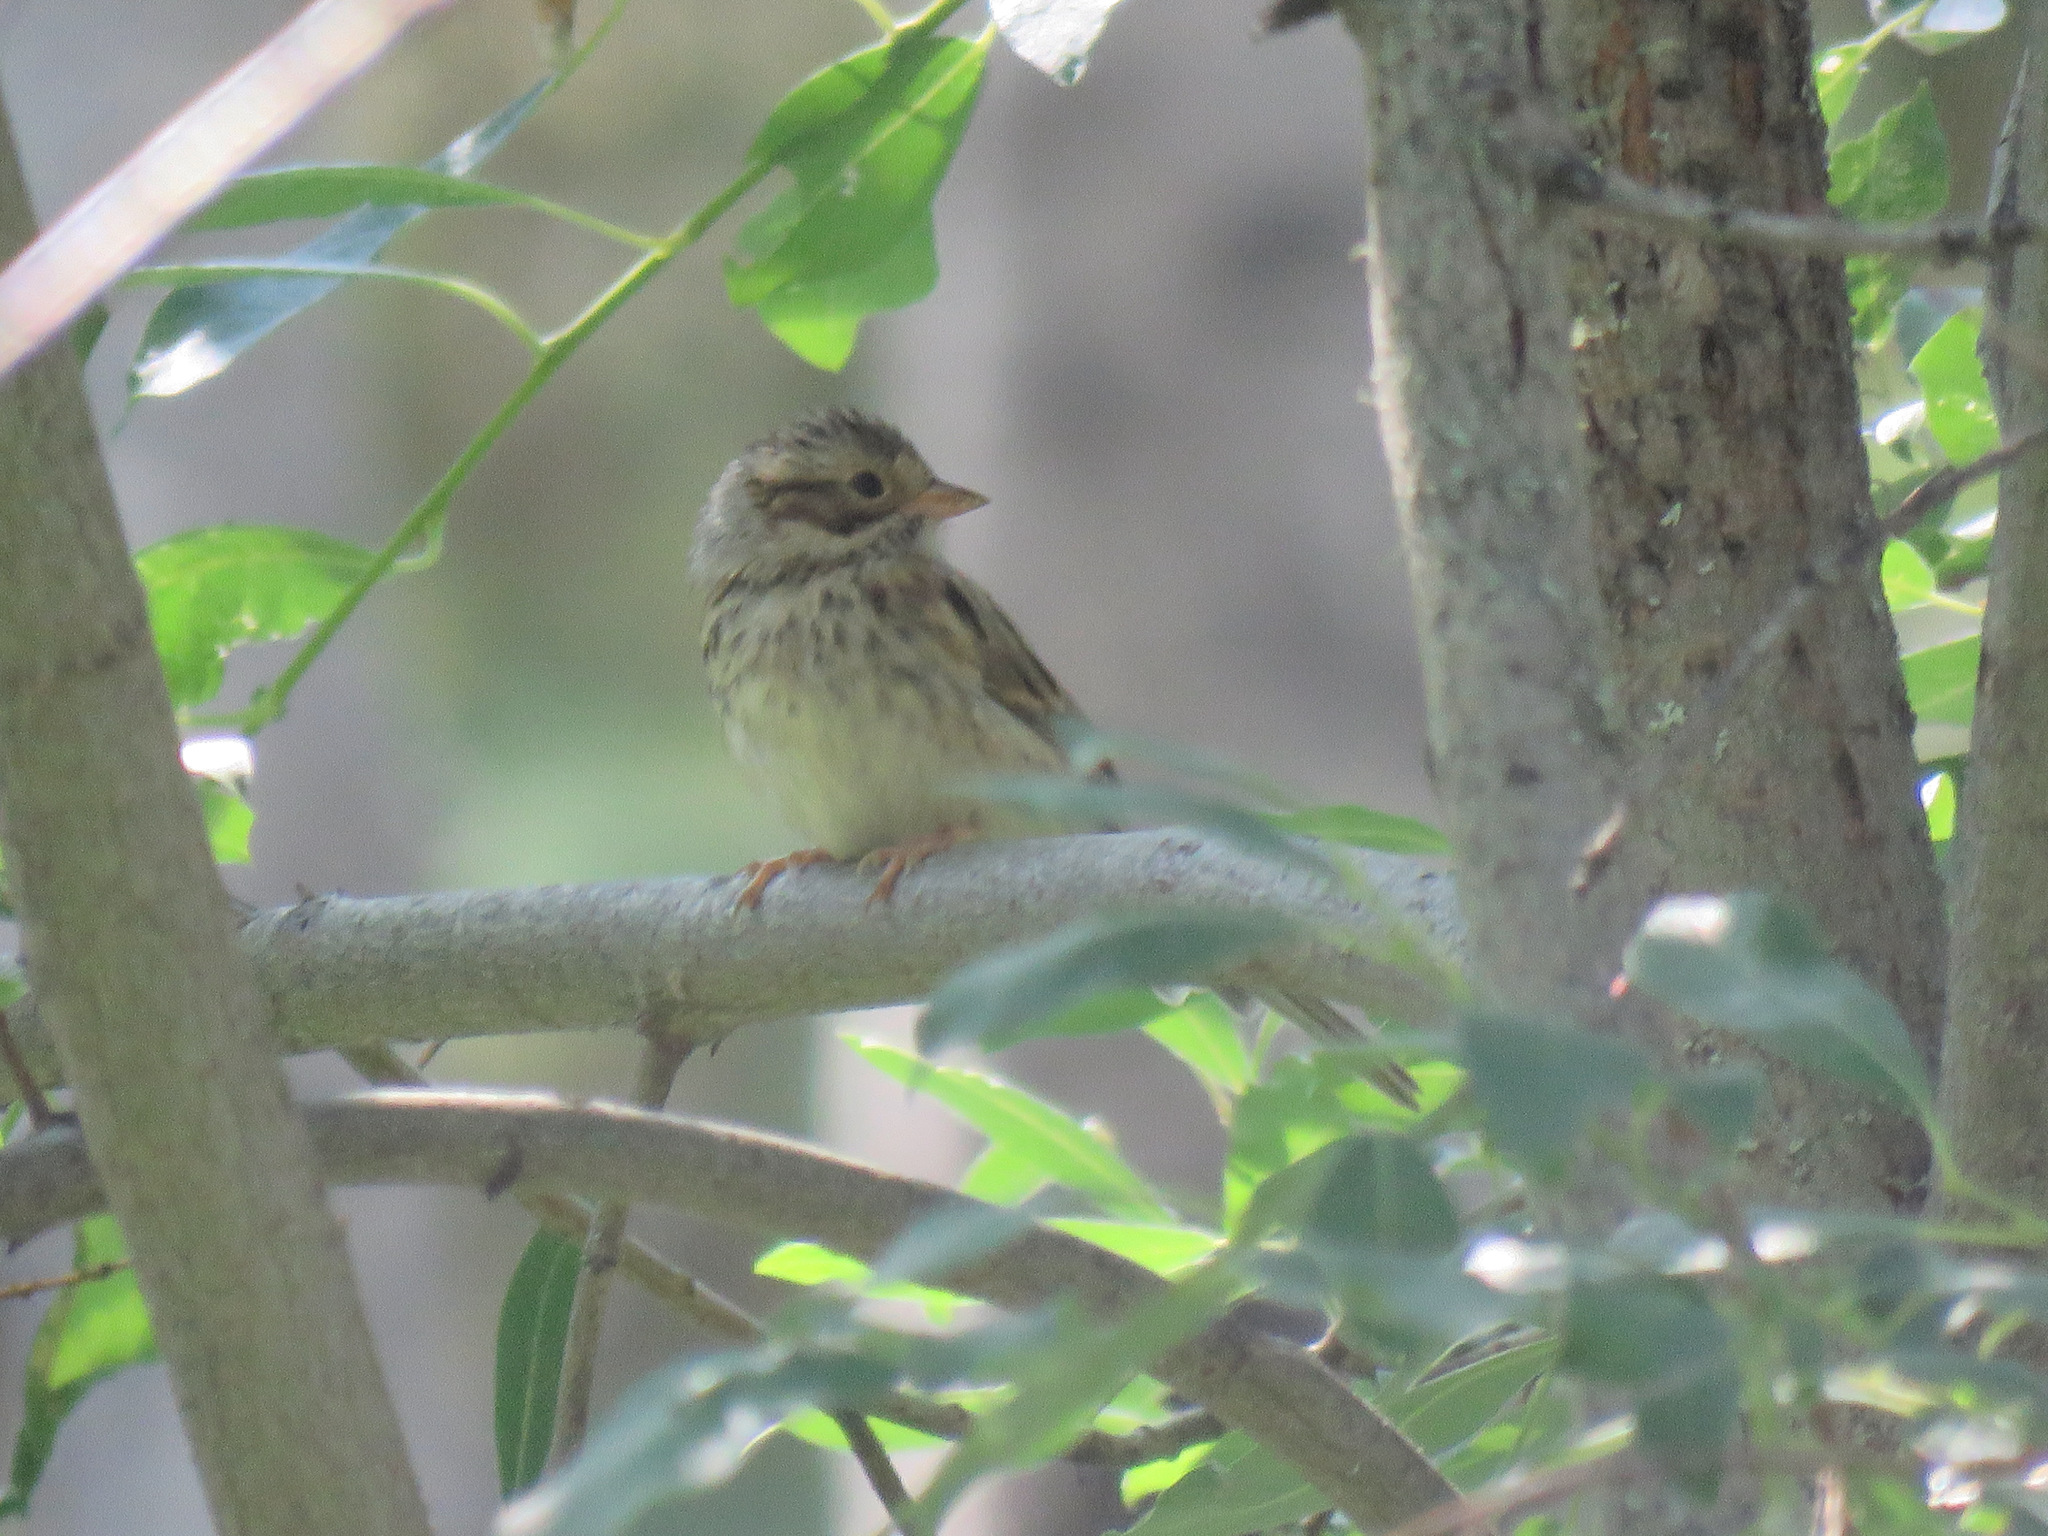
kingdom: Animalia
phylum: Chordata
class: Aves
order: Passeriformes
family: Passerellidae
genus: Spizella
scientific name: Spizella pallida
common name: Clay-colored sparrow
